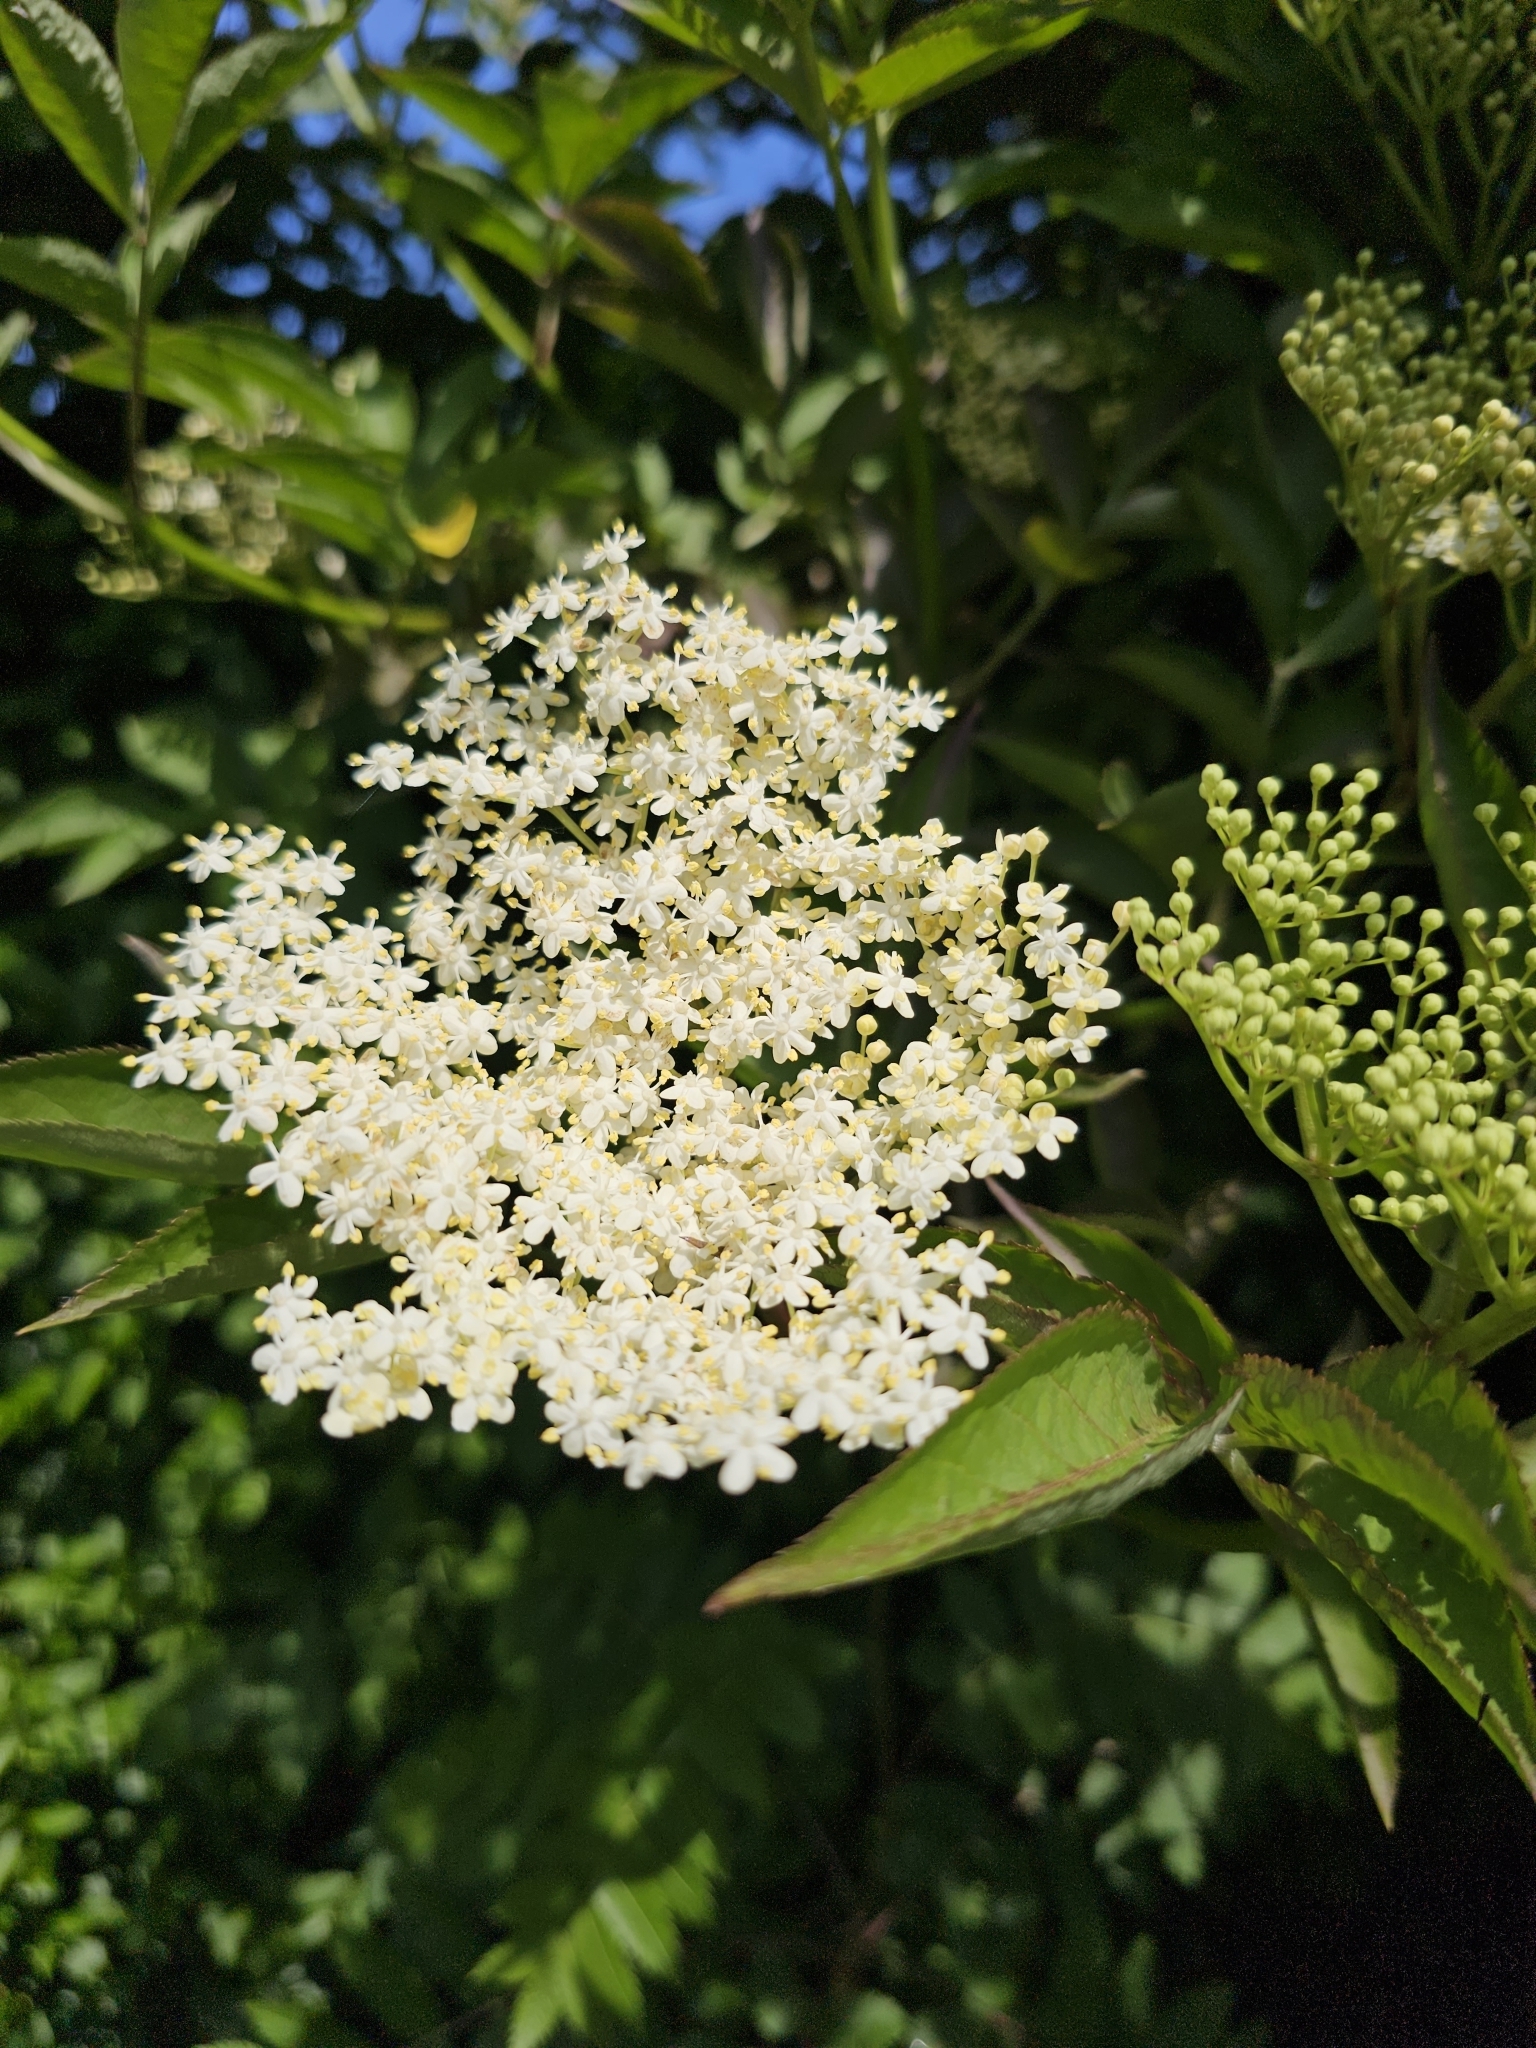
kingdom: Plantae
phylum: Tracheophyta
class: Magnoliopsida
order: Dipsacales
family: Viburnaceae
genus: Sambucus
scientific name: Sambucus nigra
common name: Elder
